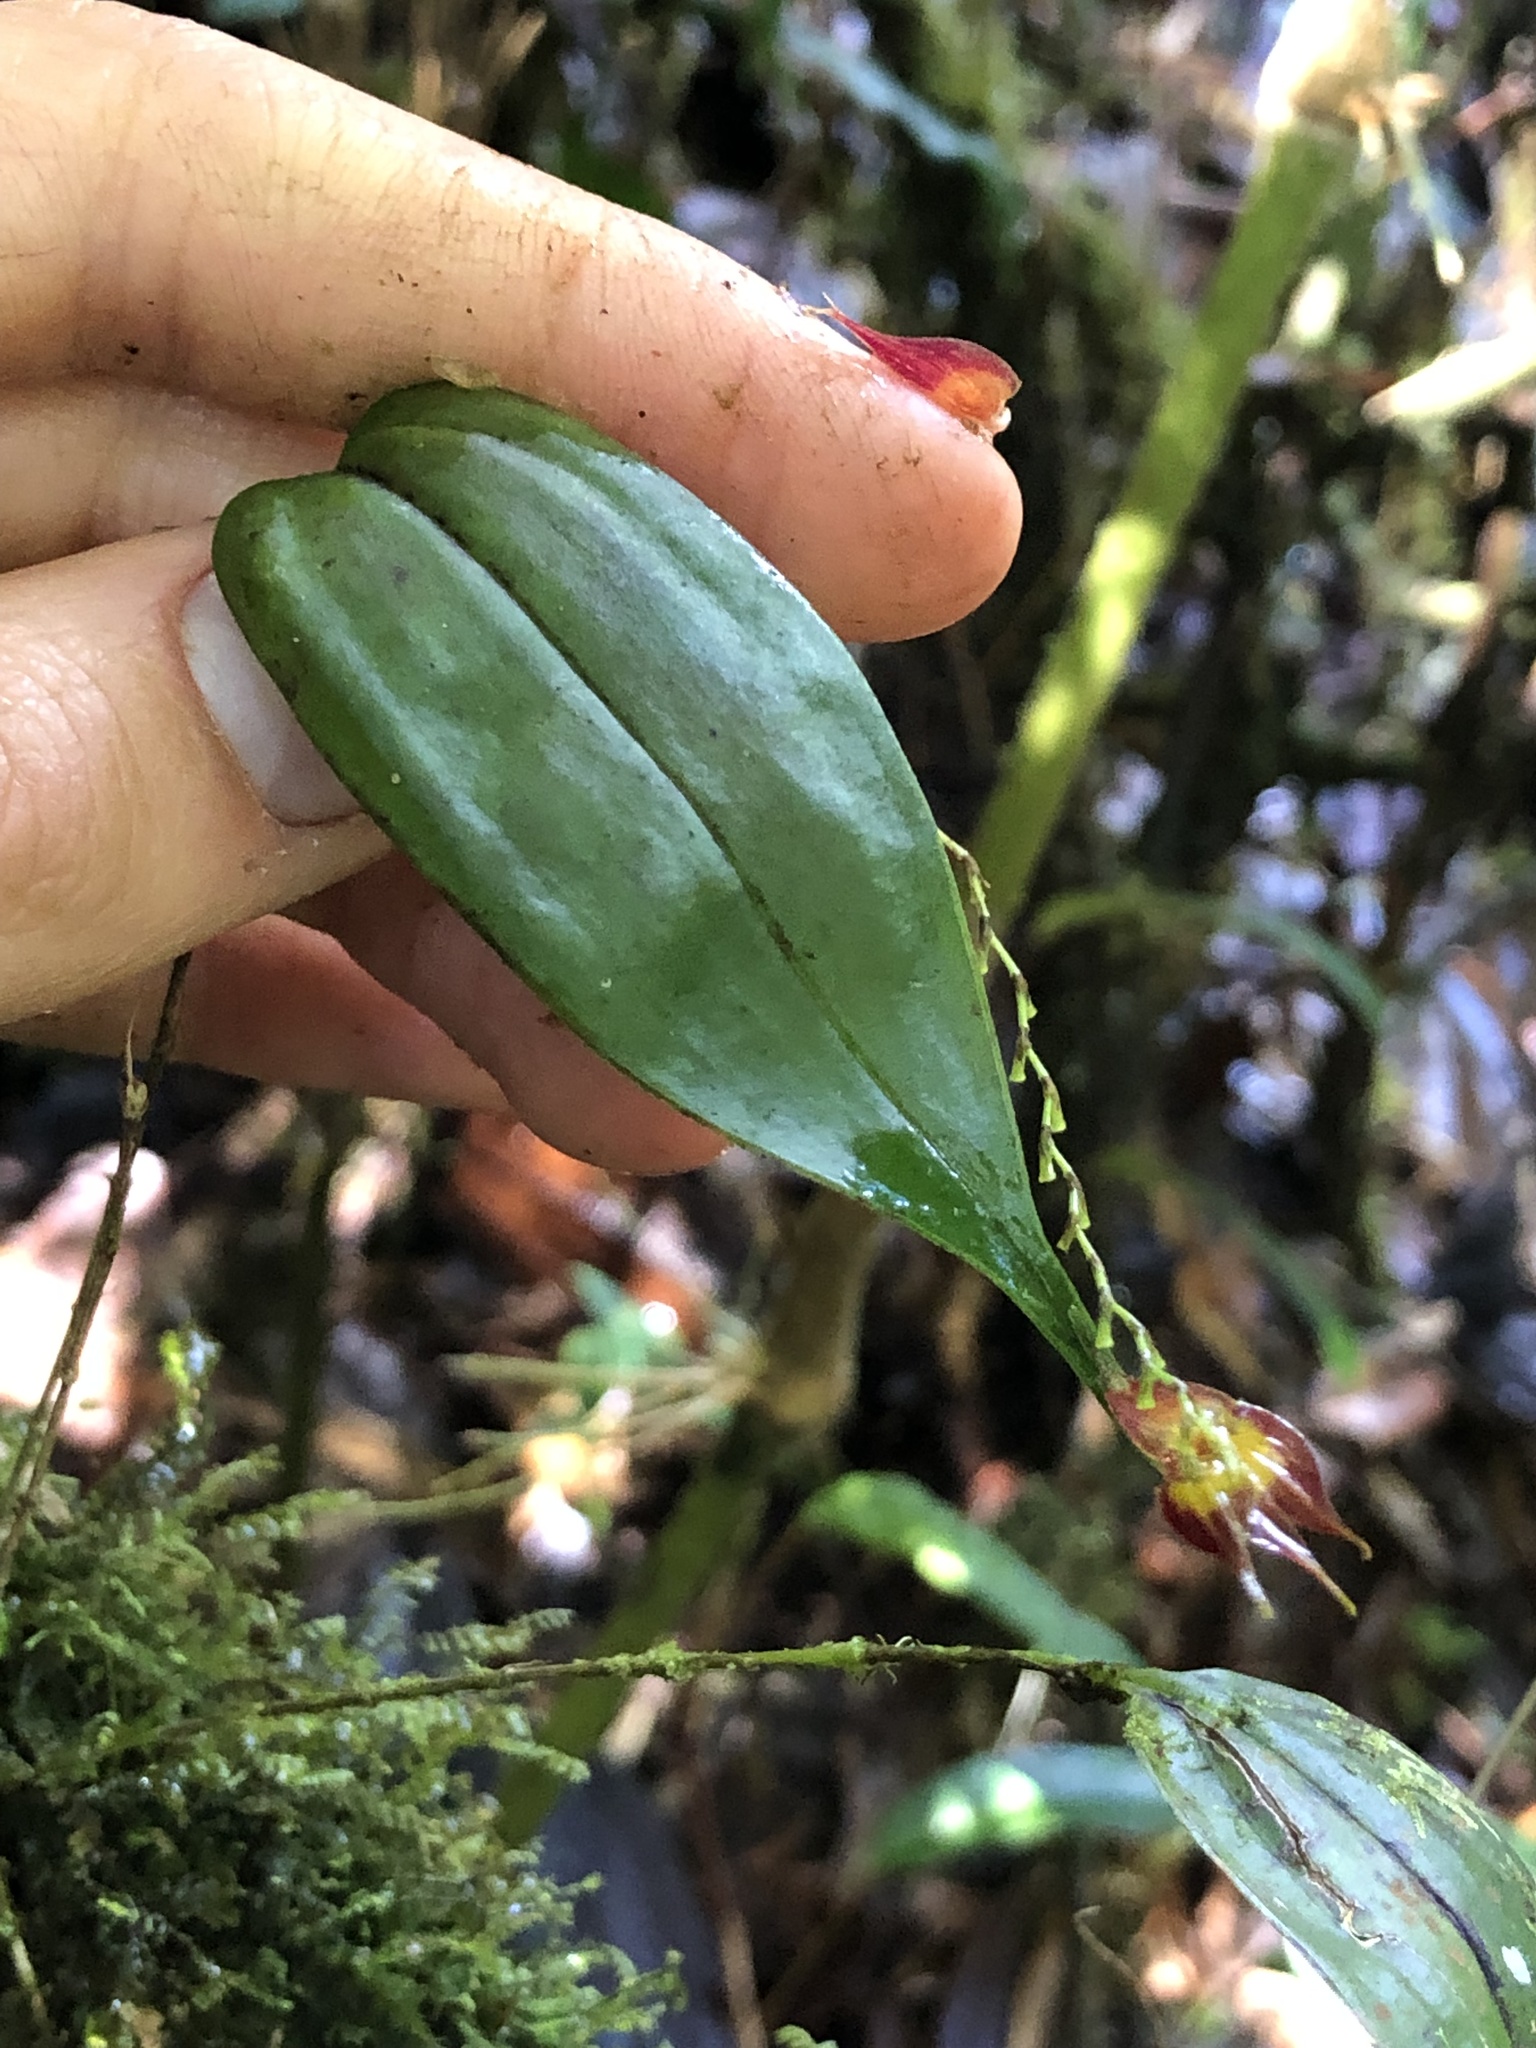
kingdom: Plantae
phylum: Tracheophyta
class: Liliopsida
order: Asparagales
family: Orchidaceae
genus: Lepanthes
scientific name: Lepanthes rhombipetala
